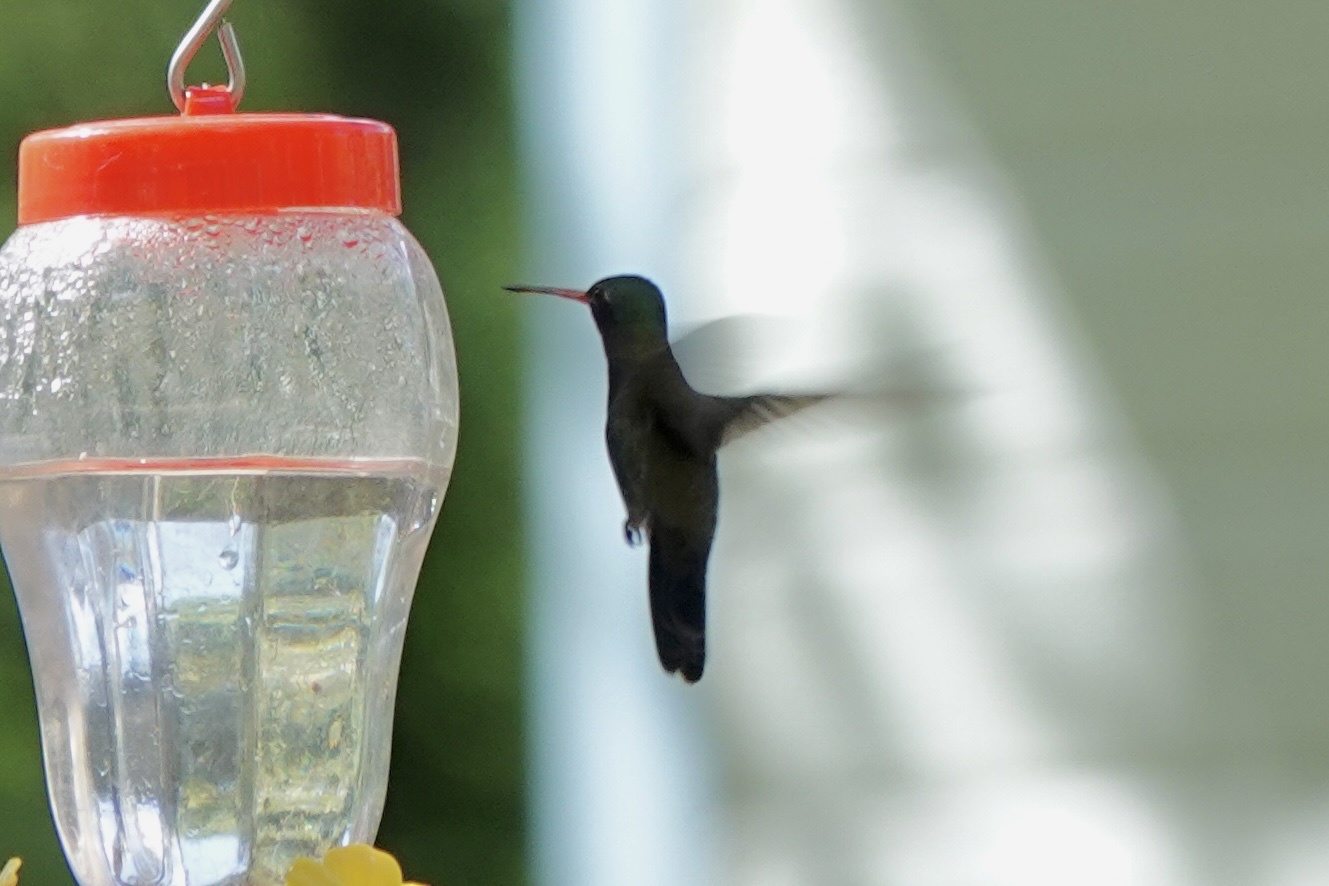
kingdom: Animalia
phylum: Chordata
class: Aves
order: Apodiformes
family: Trochilidae
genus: Cynanthus
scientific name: Cynanthus latirostris
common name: Broad-billed hummingbird
